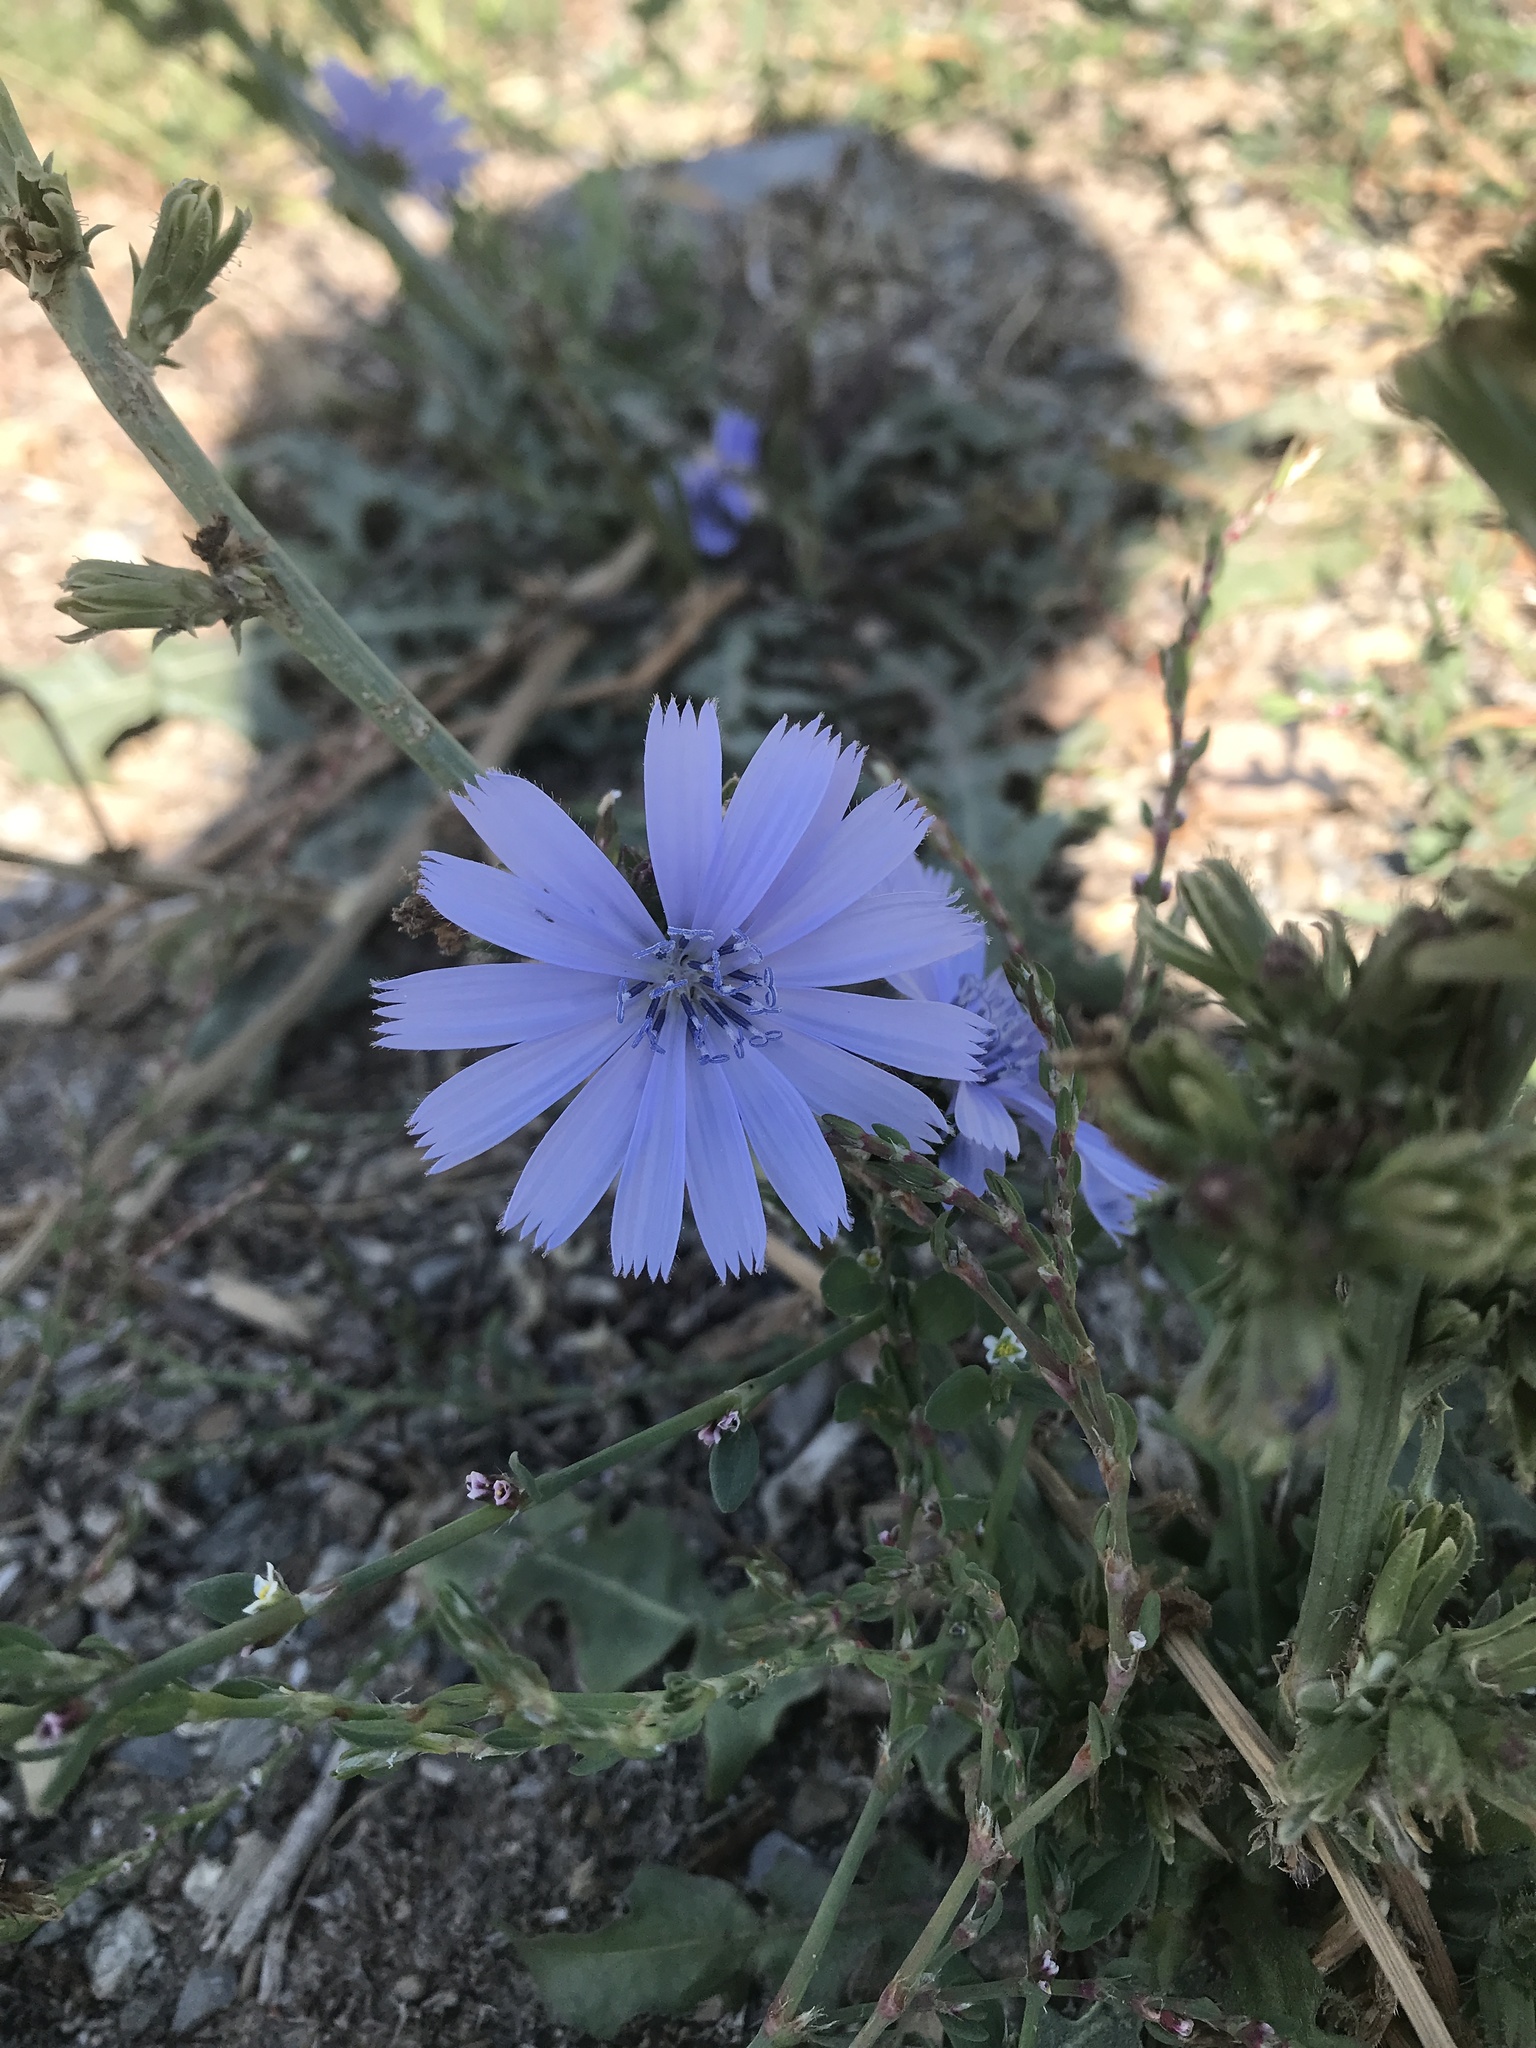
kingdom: Plantae
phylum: Tracheophyta
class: Magnoliopsida
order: Asterales
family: Asteraceae
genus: Cichorium
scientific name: Cichorium intybus
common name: Chicory
